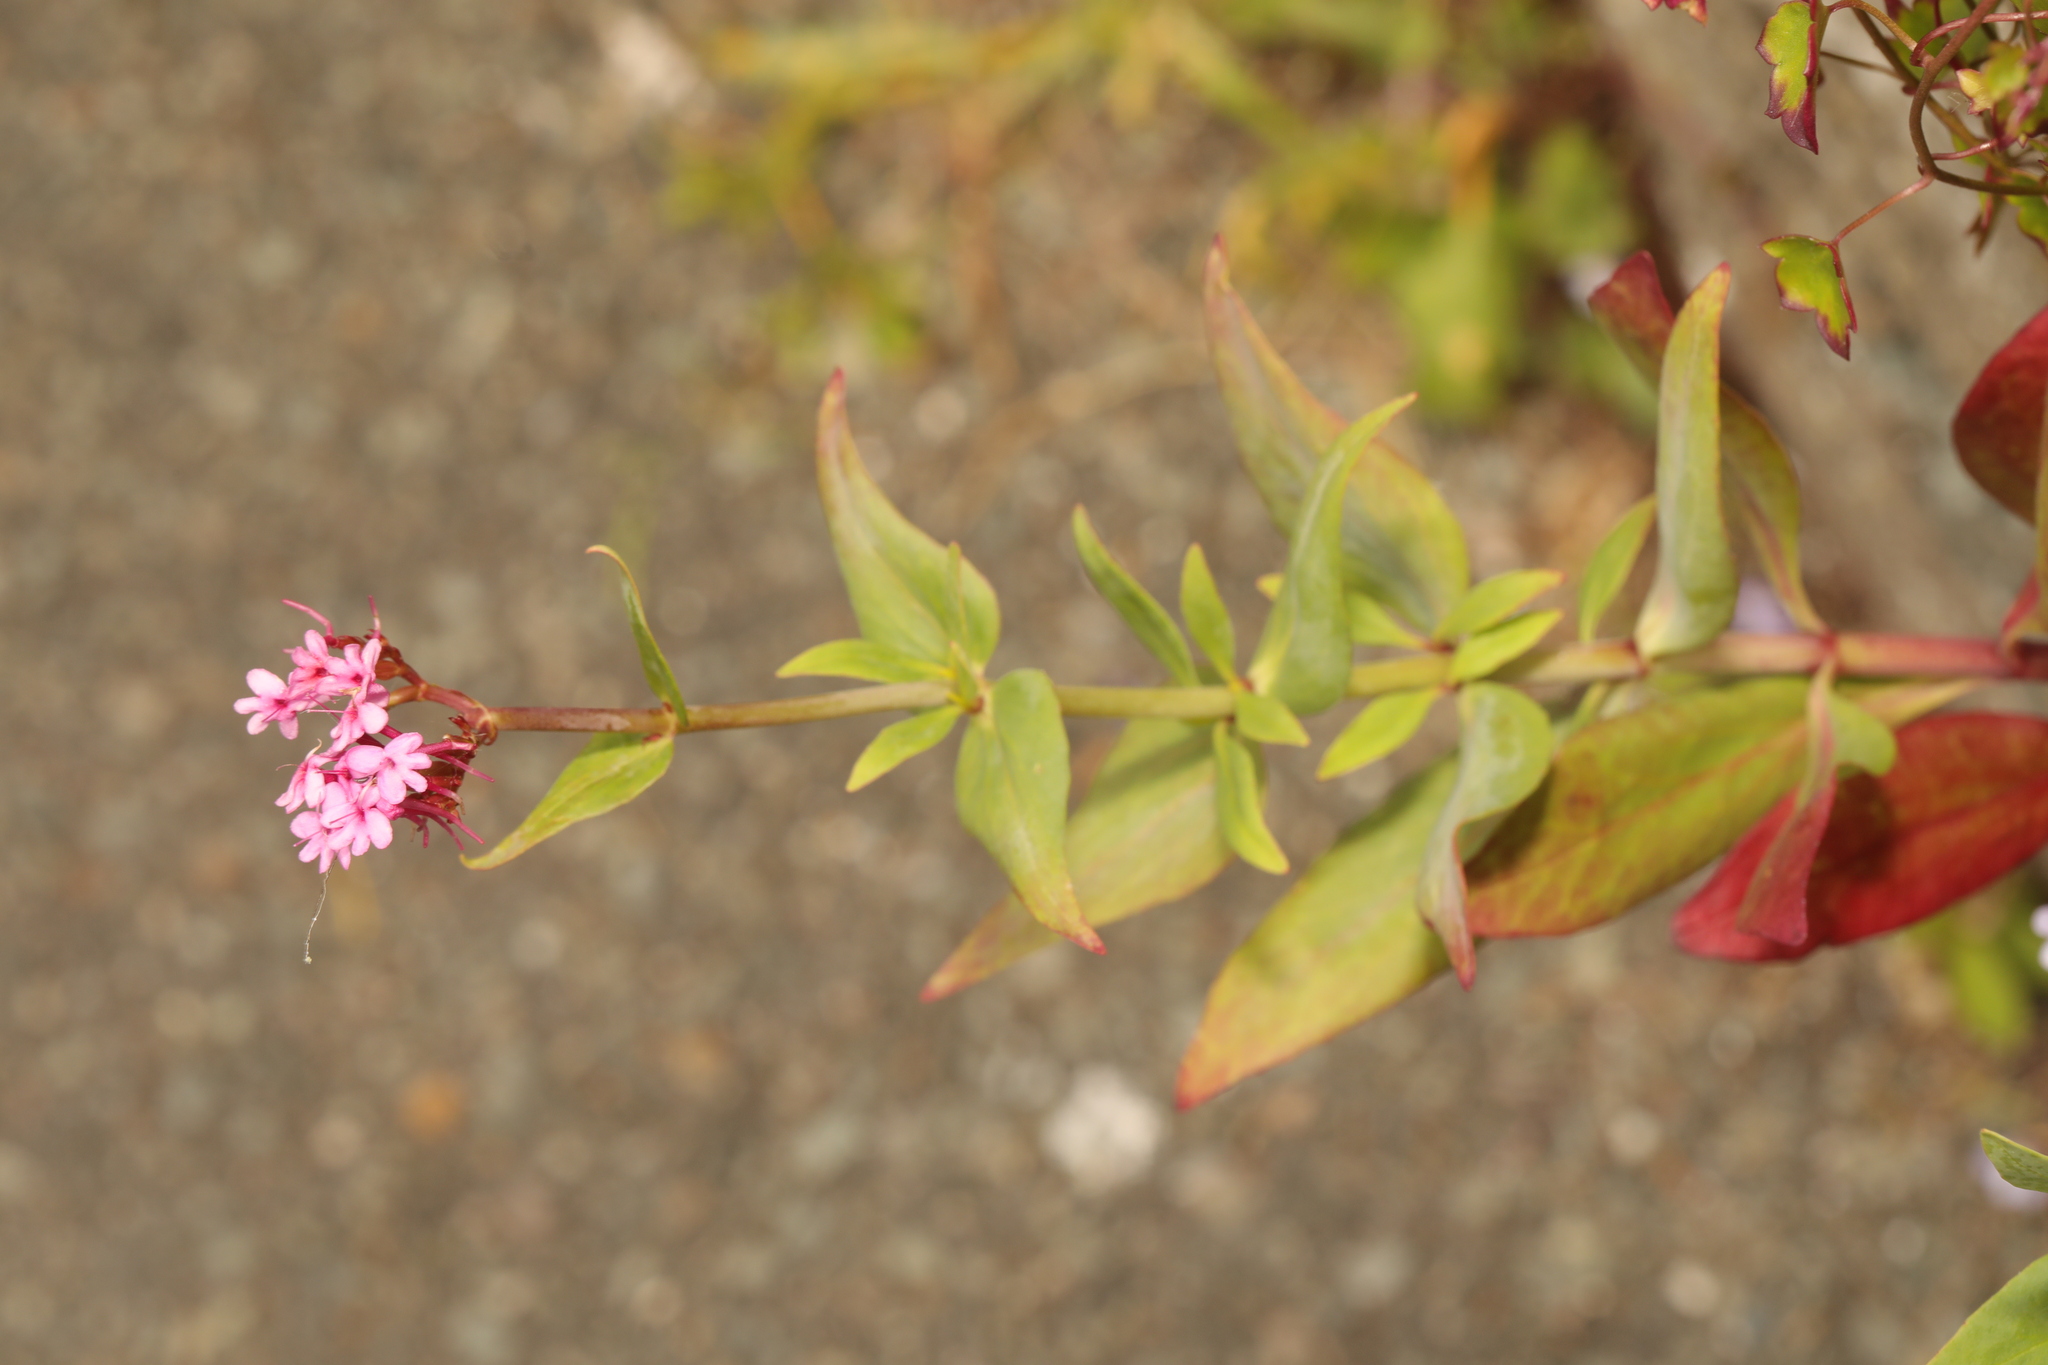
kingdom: Plantae
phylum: Tracheophyta
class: Magnoliopsida
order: Dipsacales
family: Caprifoliaceae
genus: Centranthus
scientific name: Centranthus ruber
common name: Red valerian
